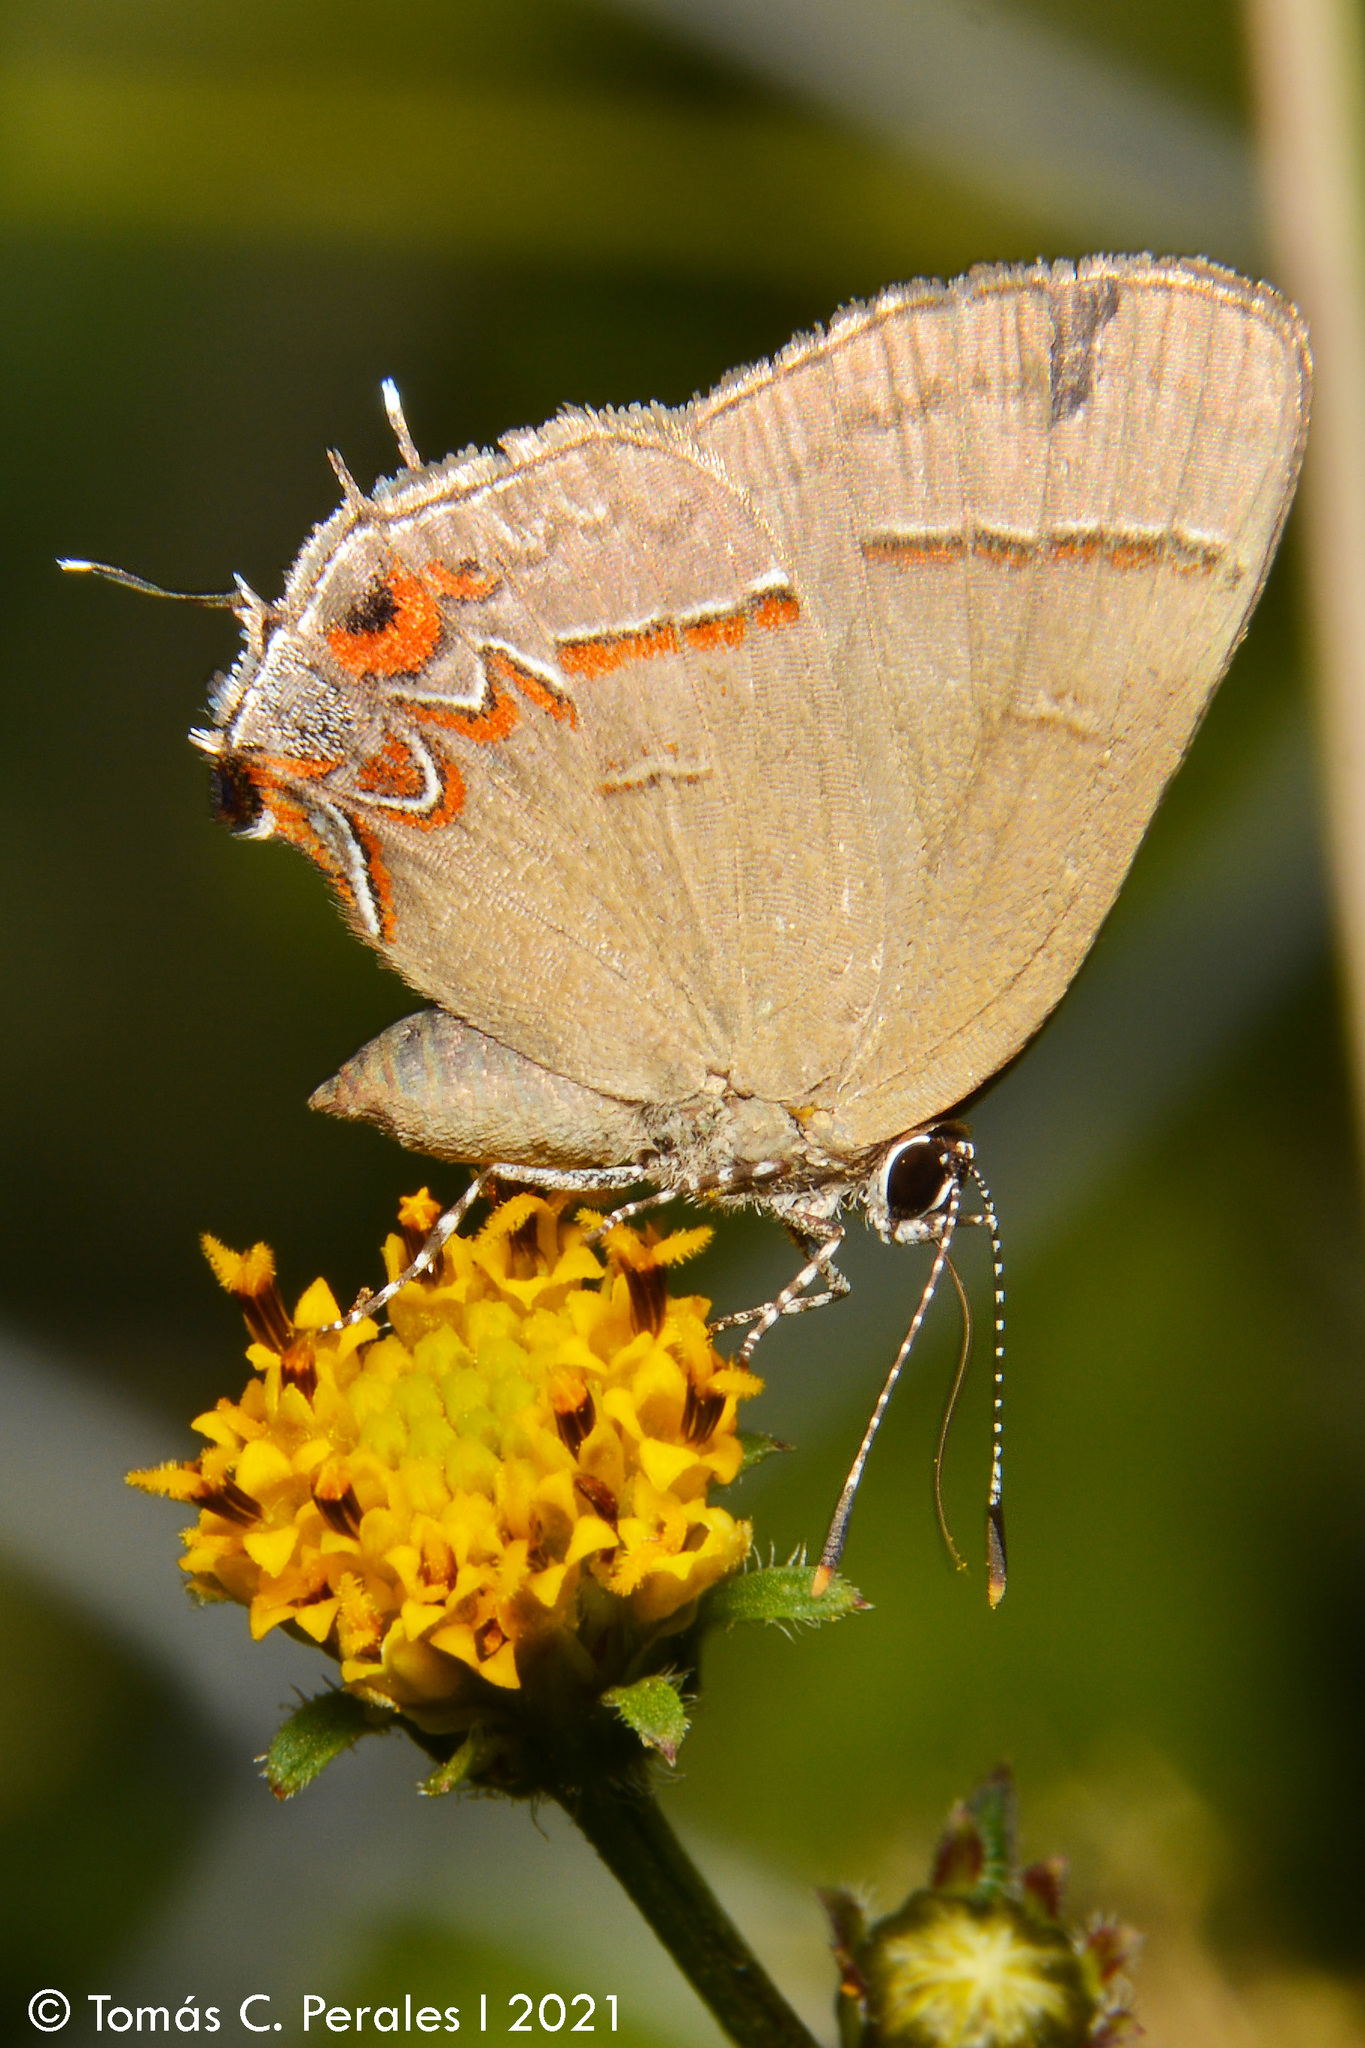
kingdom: Animalia
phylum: Arthropoda
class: Insecta
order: Lepidoptera
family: Lycaenidae
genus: Calycopis
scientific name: Calycopis caulonia
